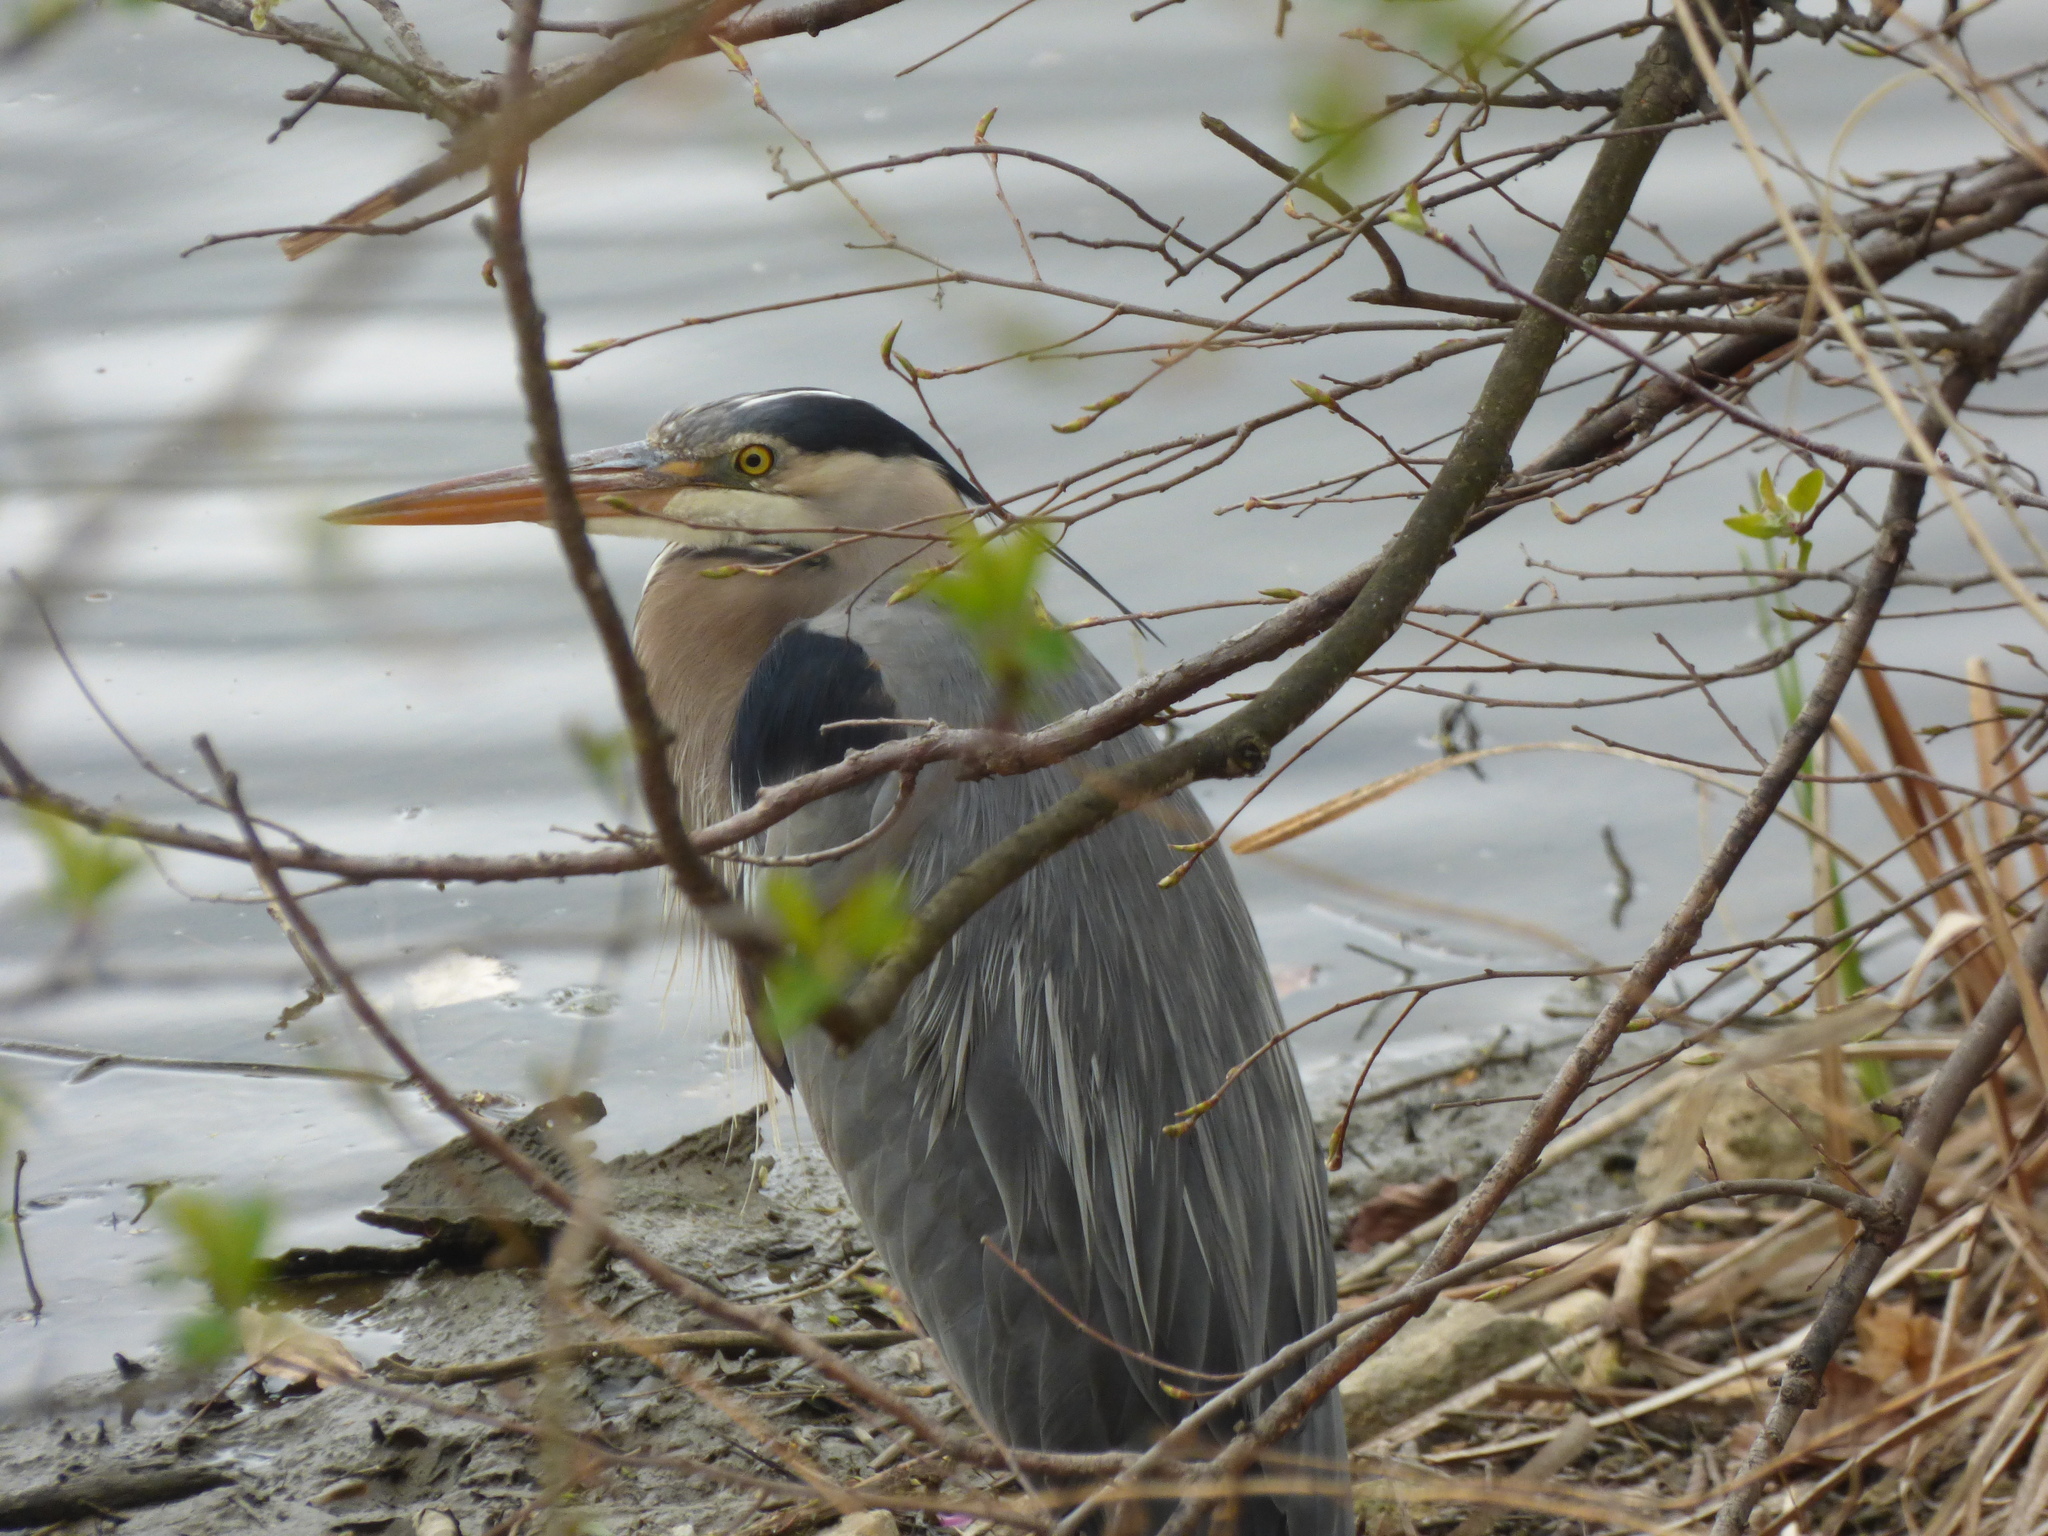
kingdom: Animalia
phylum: Chordata
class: Aves
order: Pelecaniformes
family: Ardeidae
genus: Ardea
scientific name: Ardea herodias
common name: Great blue heron
